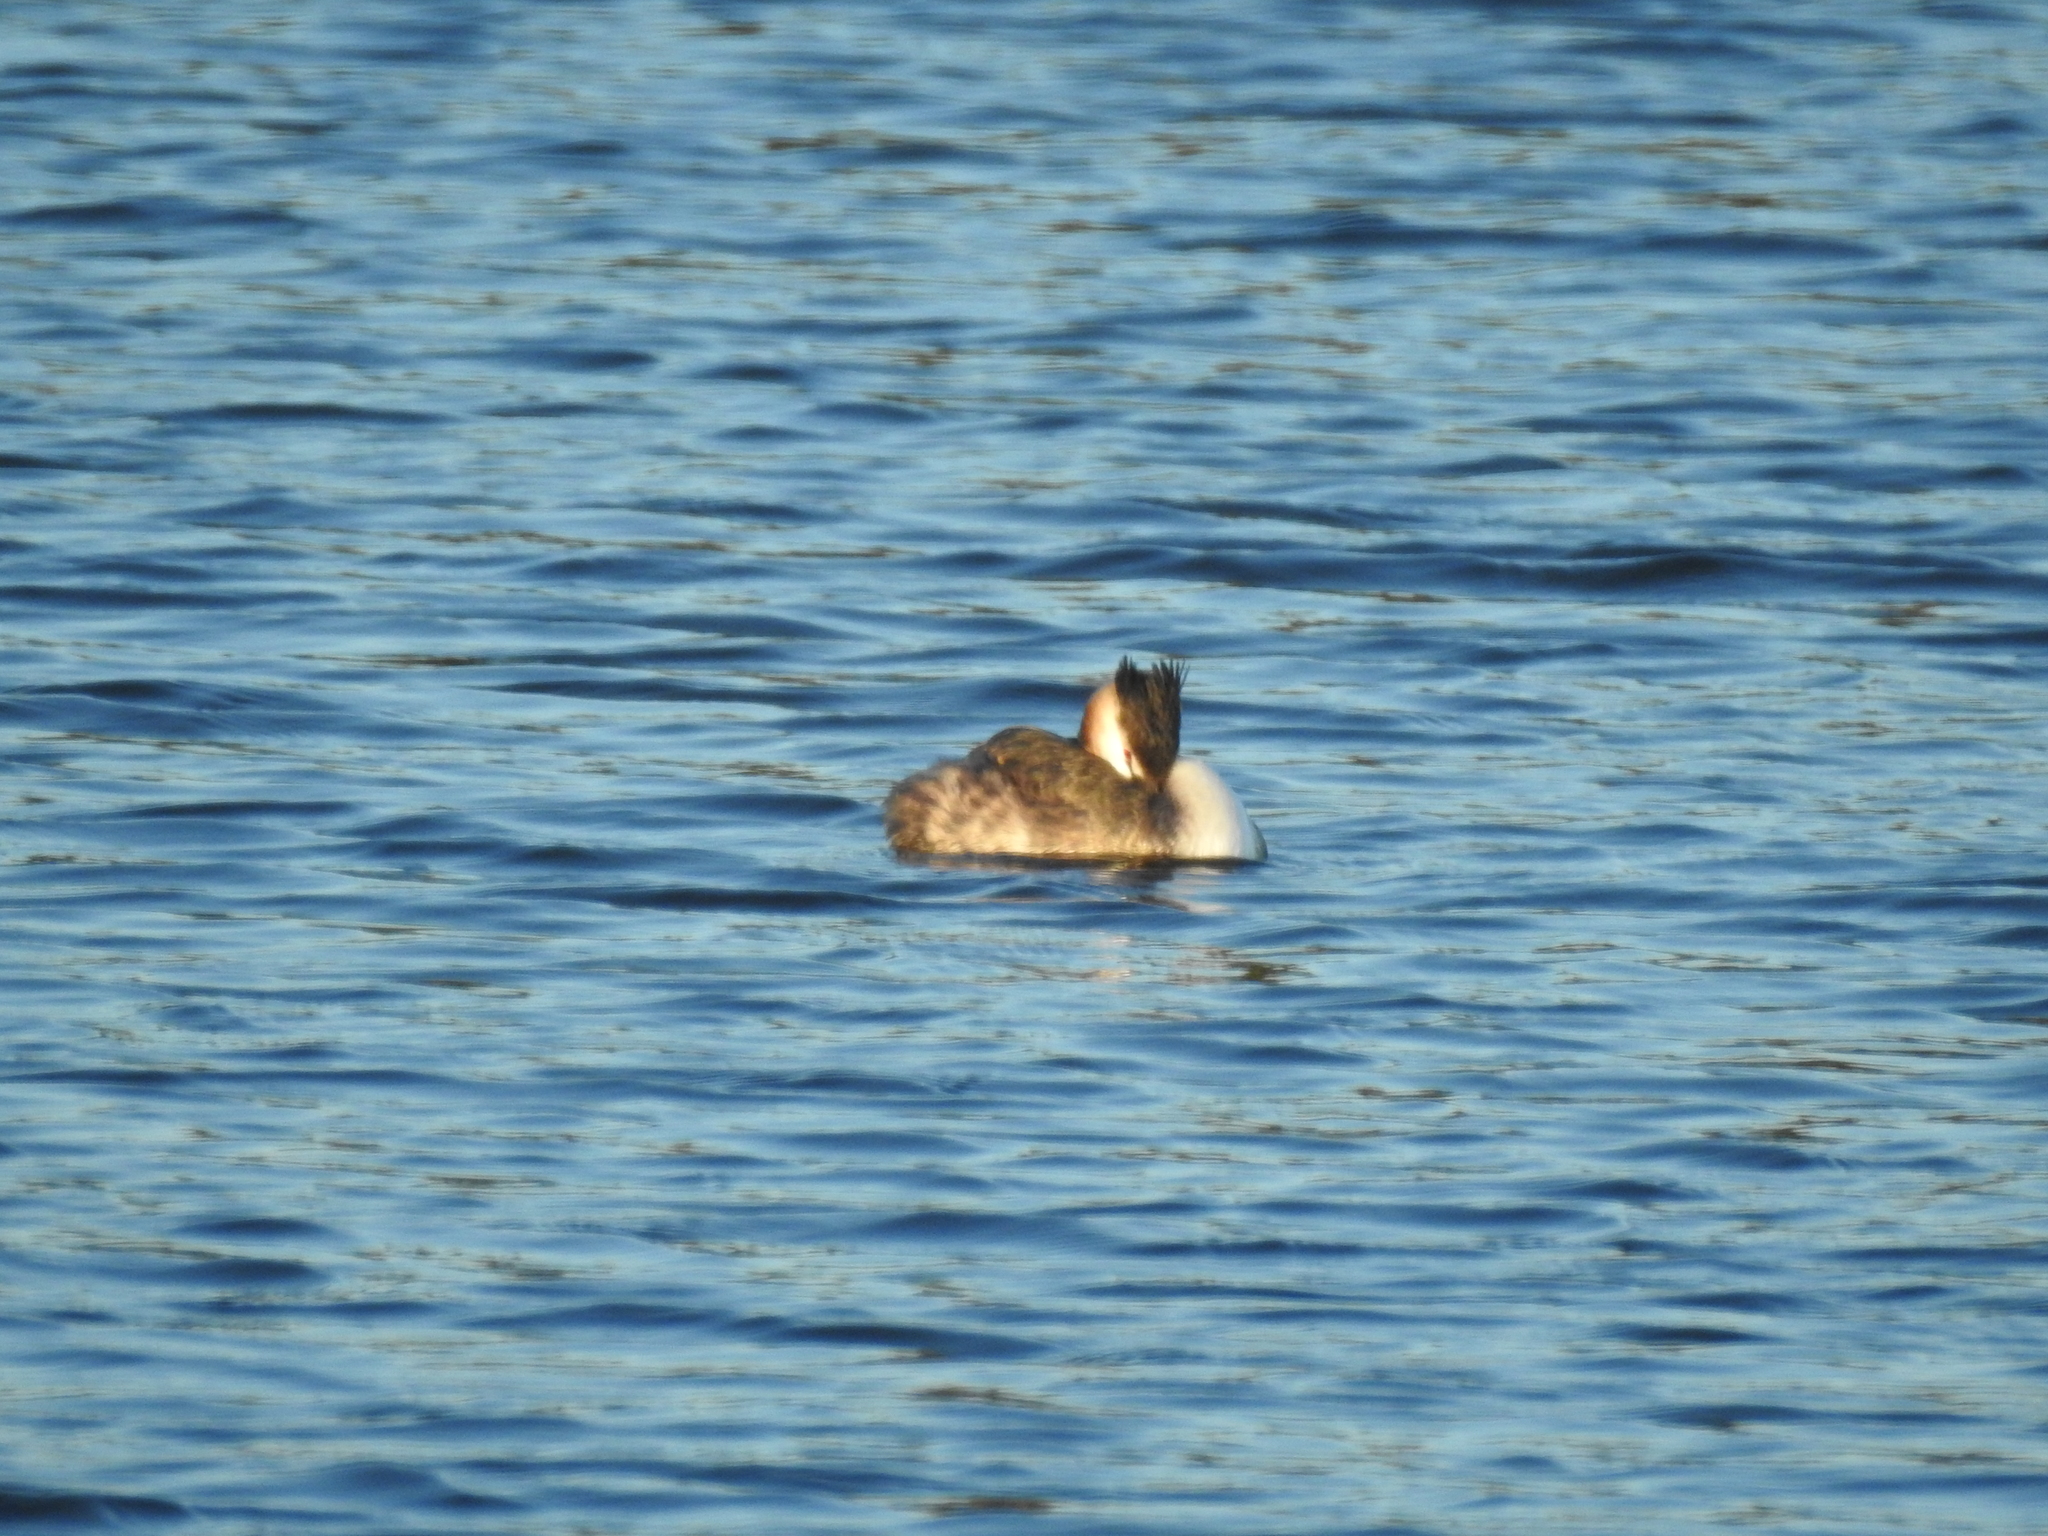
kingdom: Animalia
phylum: Chordata
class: Aves
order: Podicipediformes
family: Podicipedidae
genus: Podiceps
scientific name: Podiceps cristatus
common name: Great crested grebe
